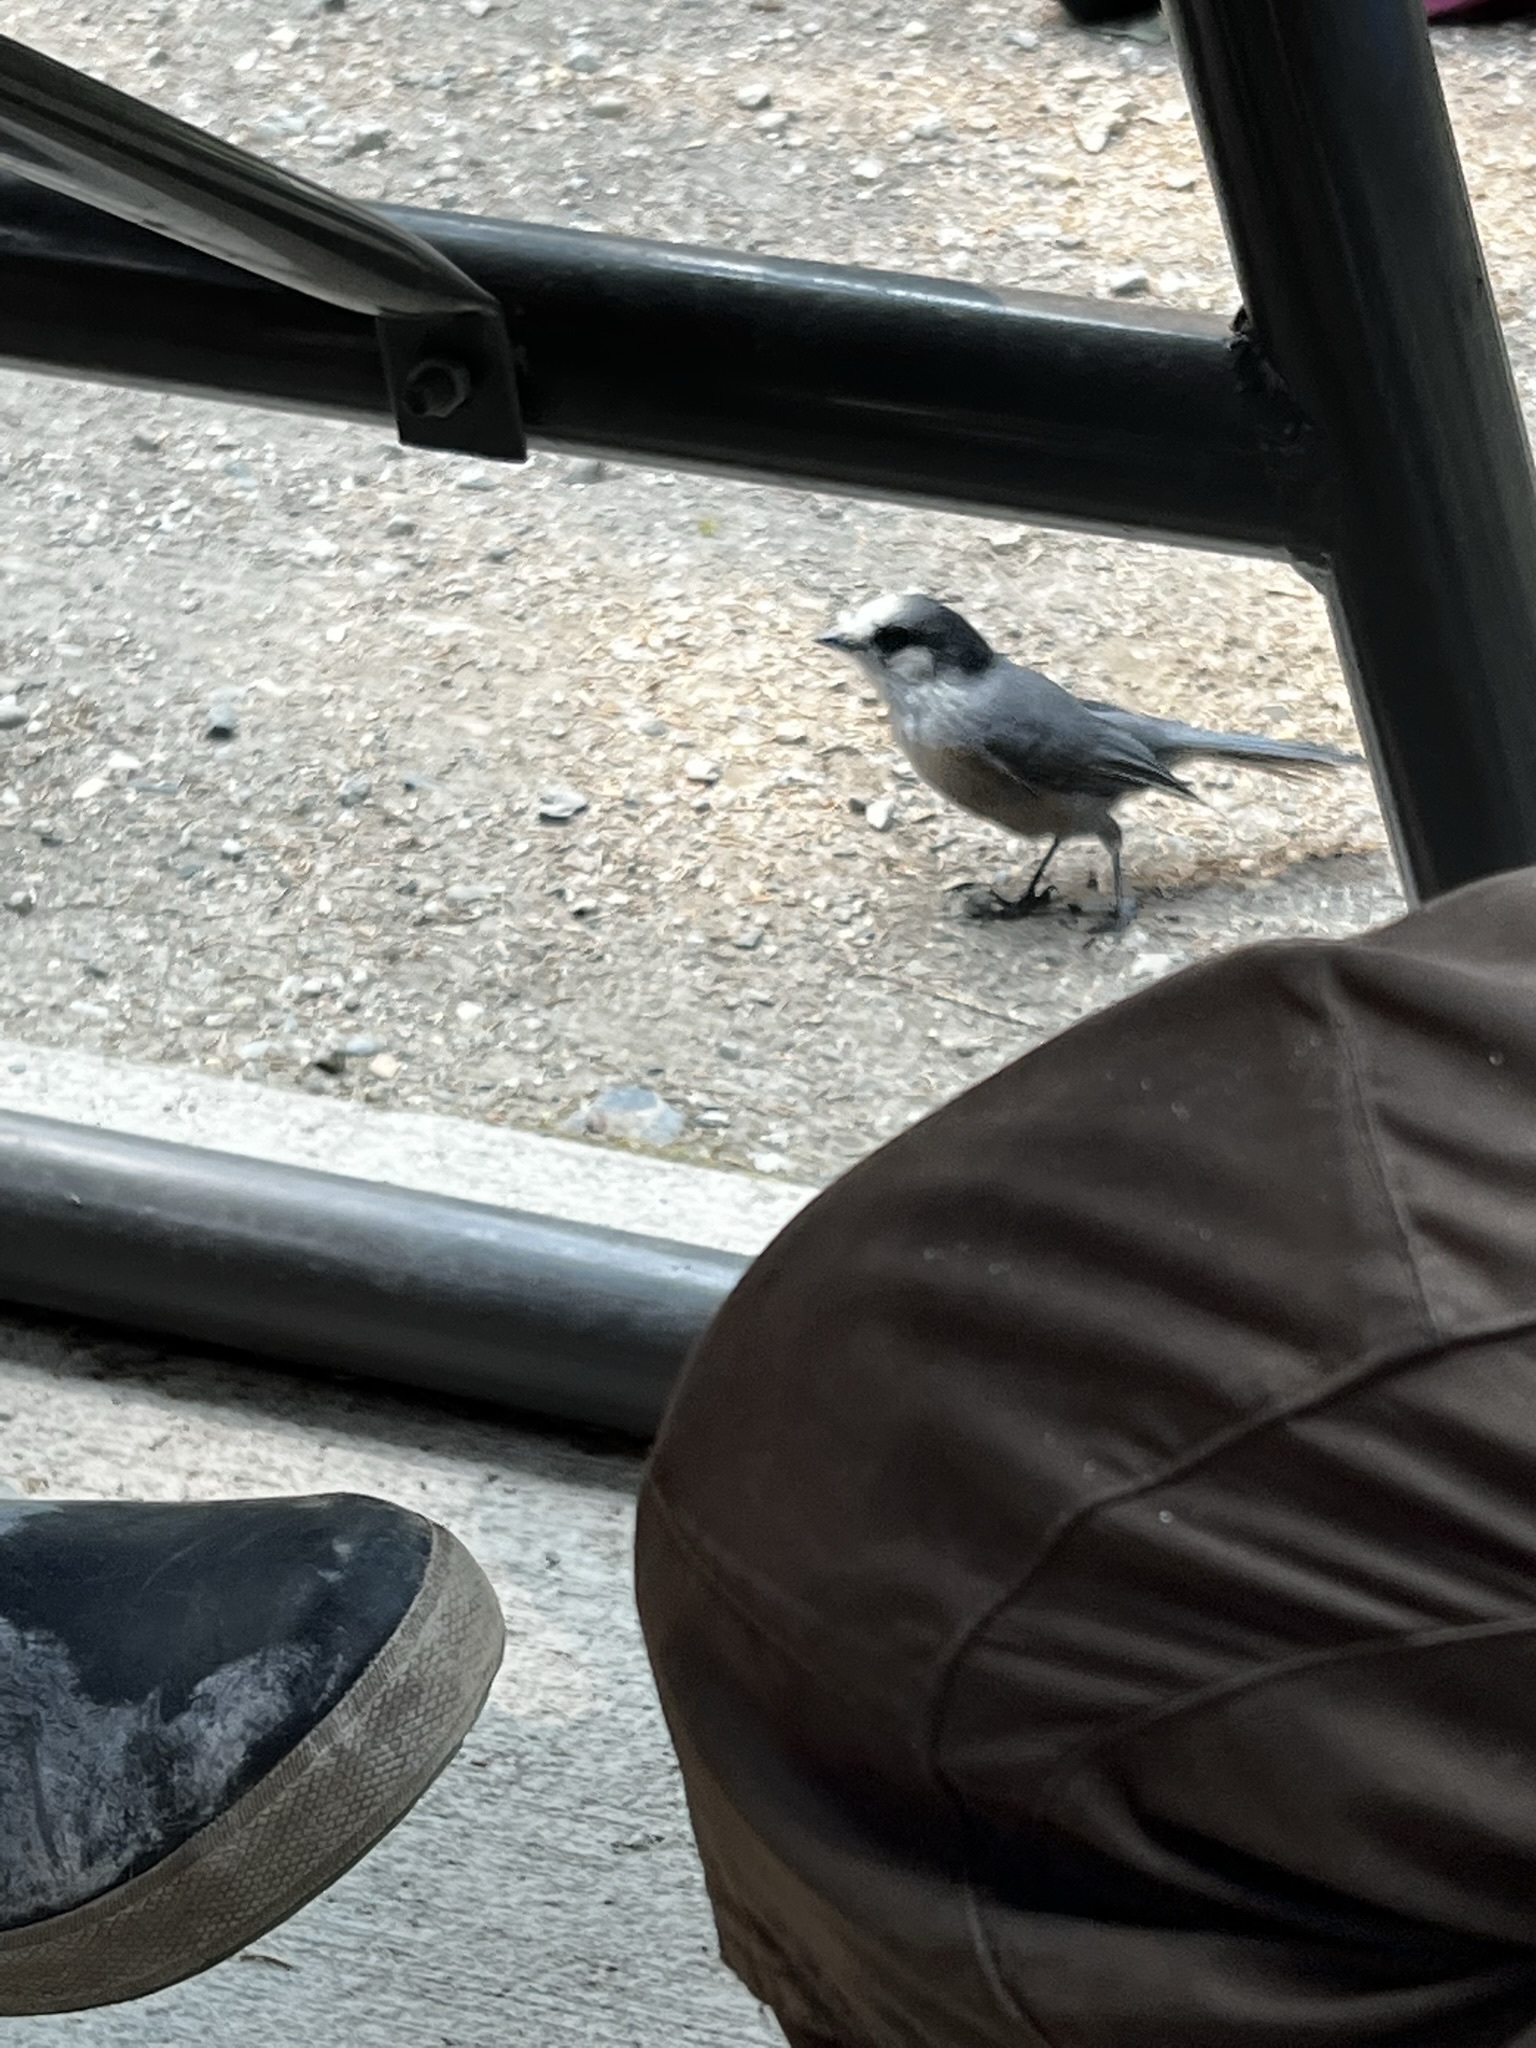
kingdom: Animalia
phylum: Chordata
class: Aves
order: Passeriformes
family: Corvidae
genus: Perisoreus
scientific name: Perisoreus canadensis
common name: Gray jay
